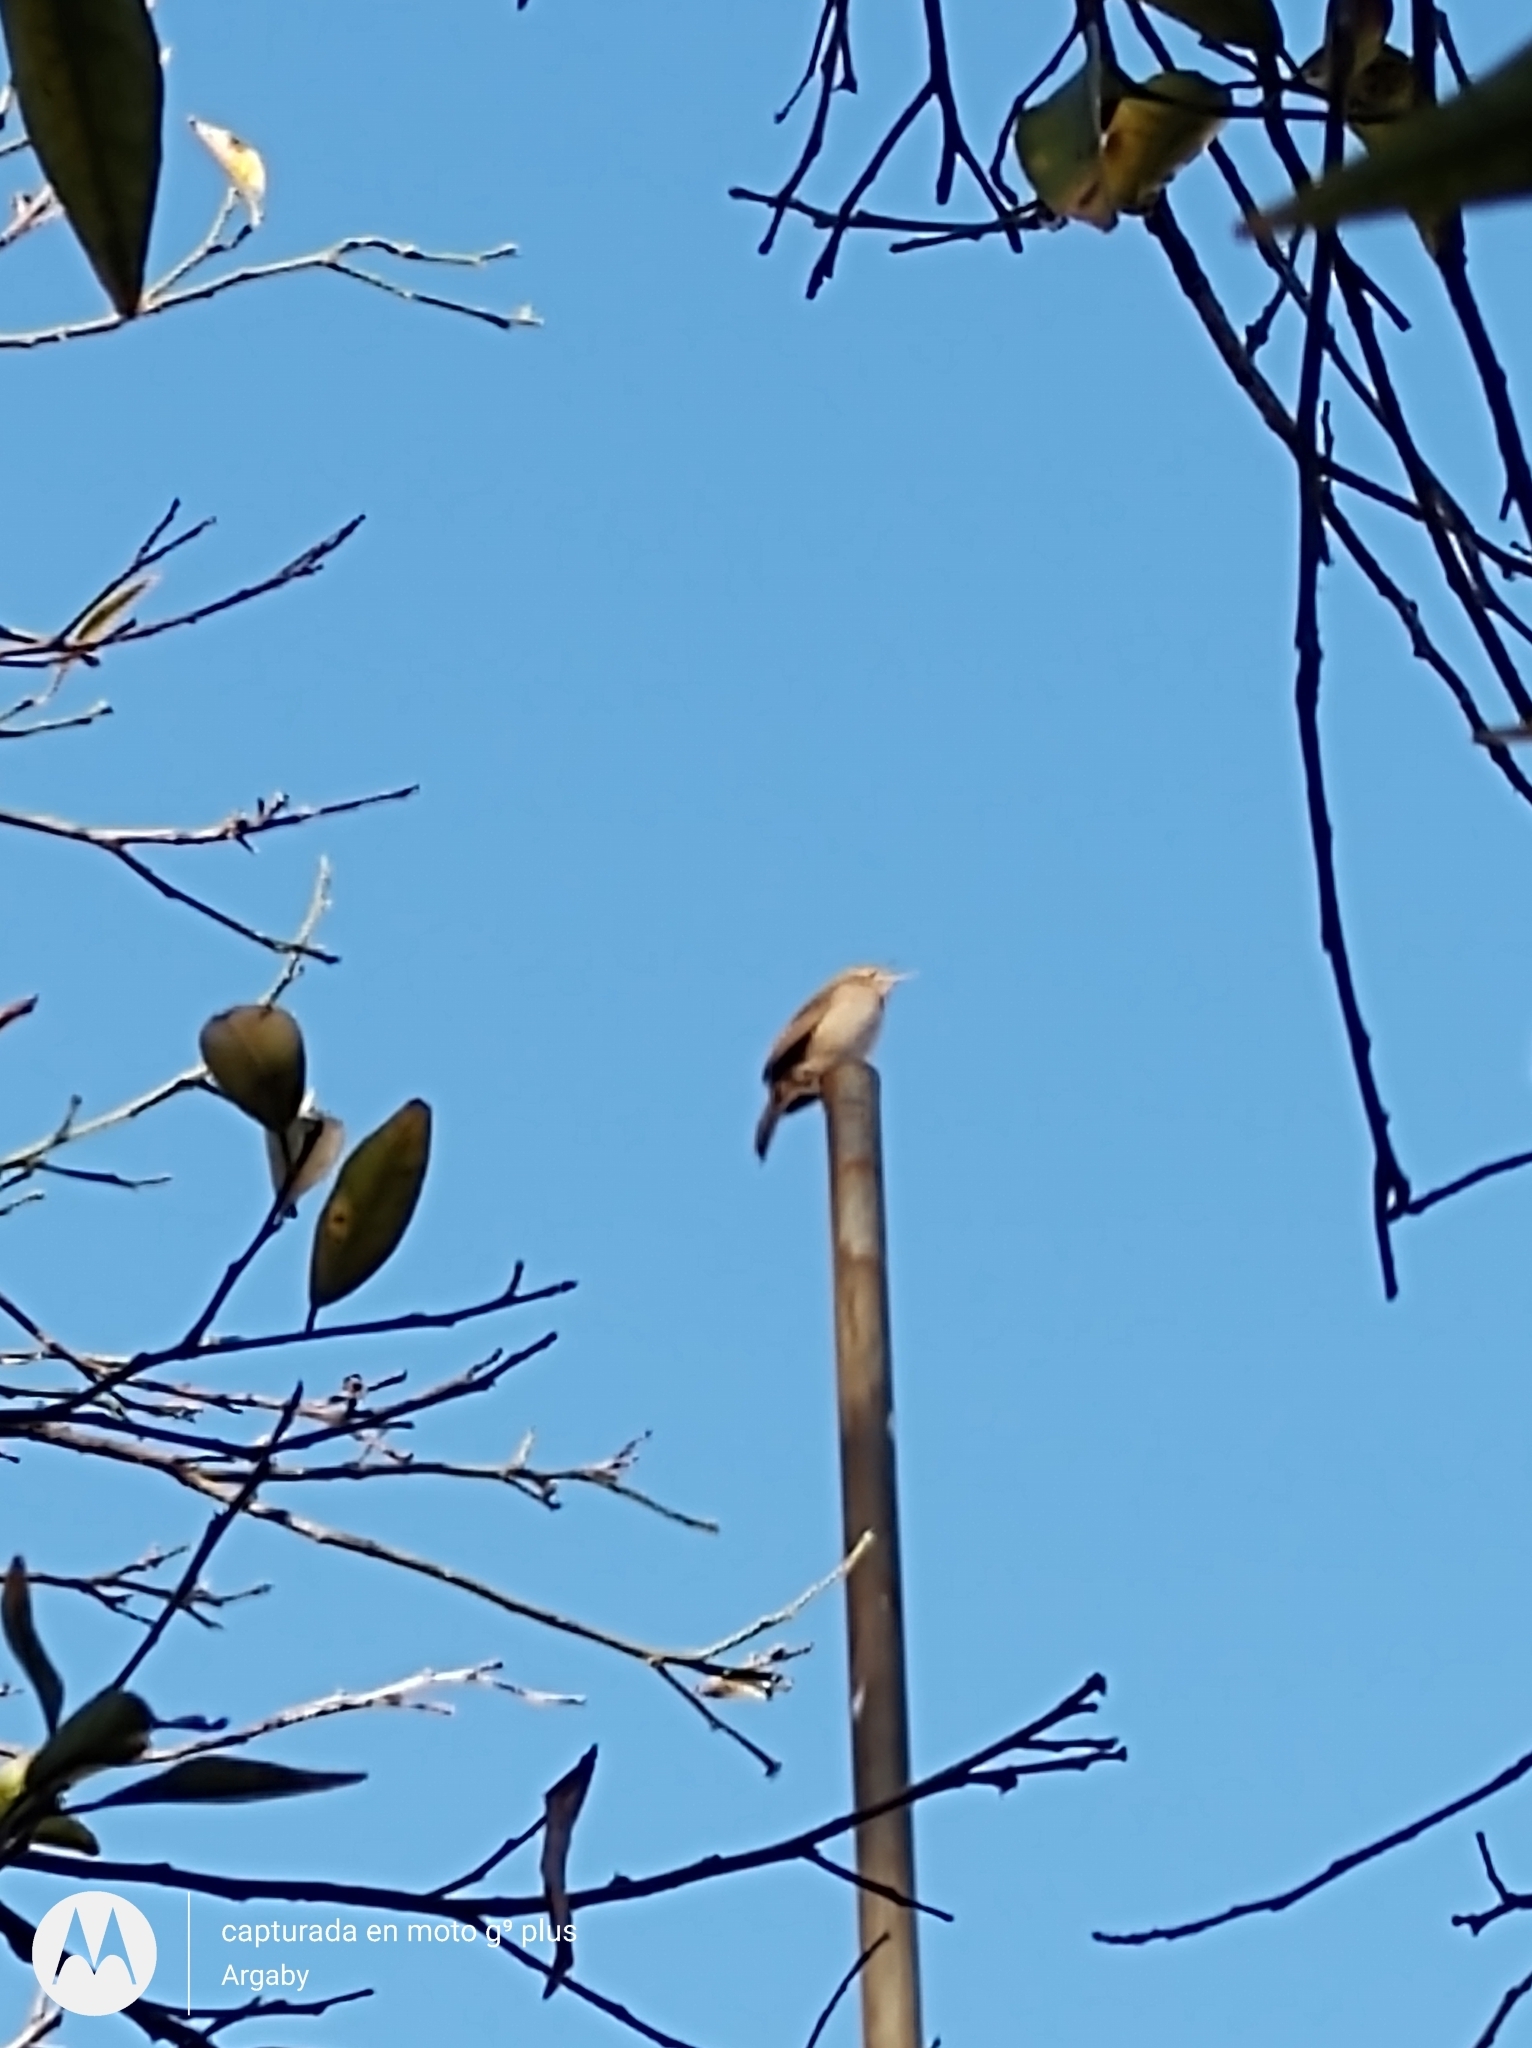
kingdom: Animalia
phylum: Chordata
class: Aves
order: Passeriformes
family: Troglodytidae
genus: Troglodytes
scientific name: Troglodytes aedon
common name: House wren
